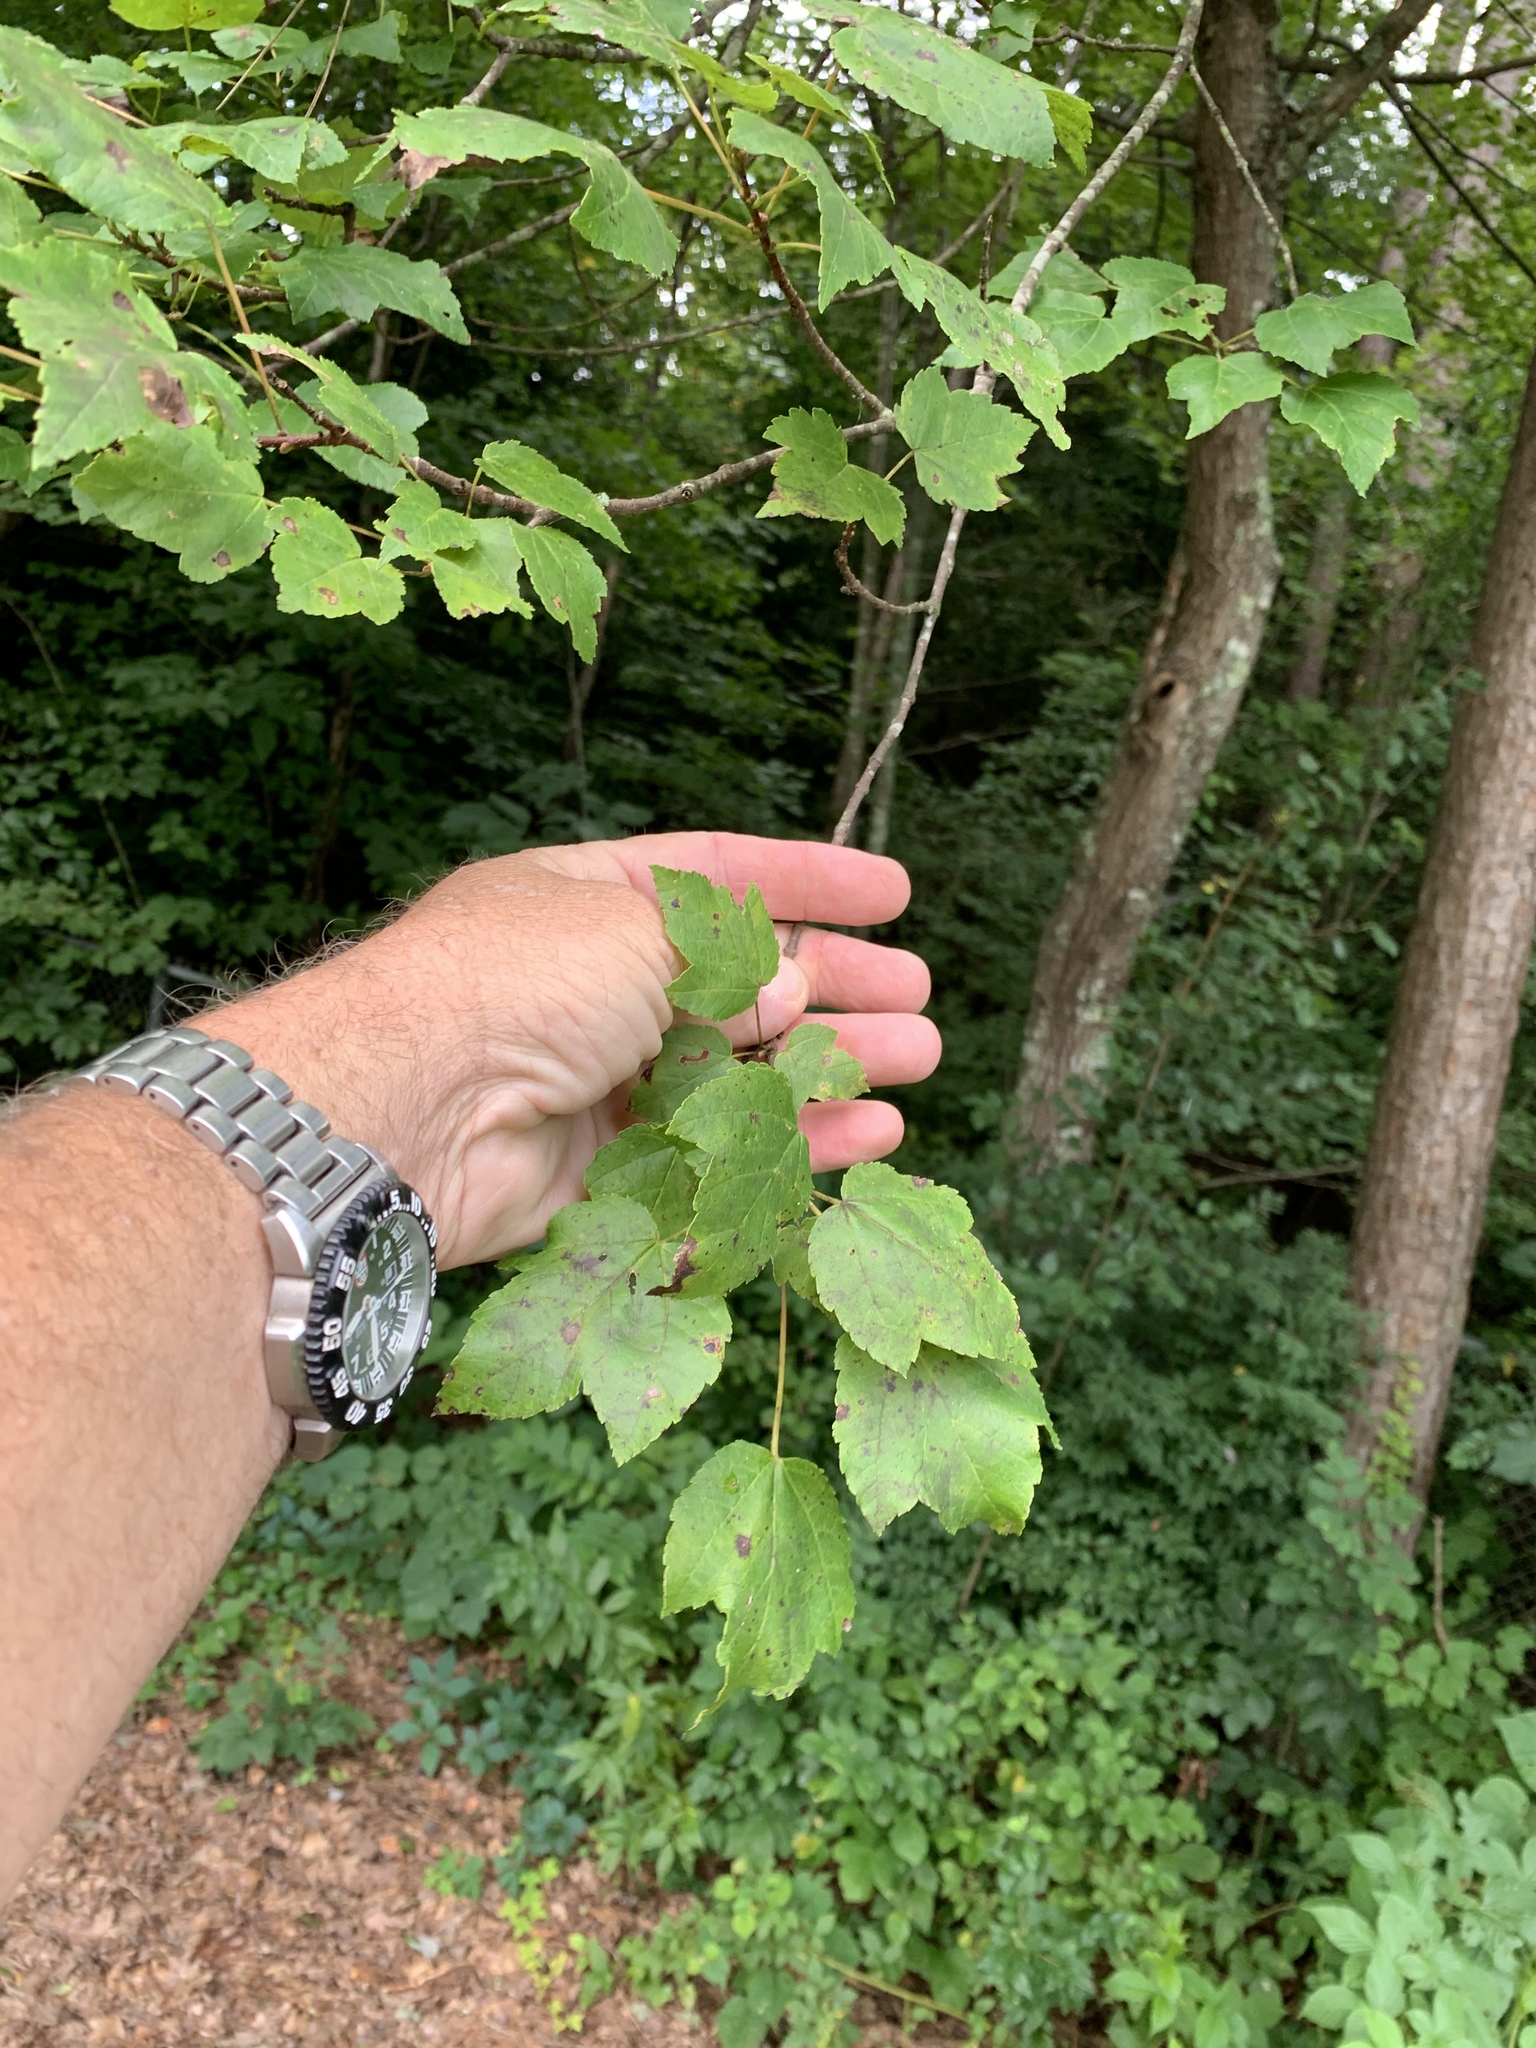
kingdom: Plantae
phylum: Tracheophyta
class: Magnoliopsida
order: Sapindales
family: Sapindaceae
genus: Acer
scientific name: Acer rubrum
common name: Red maple
